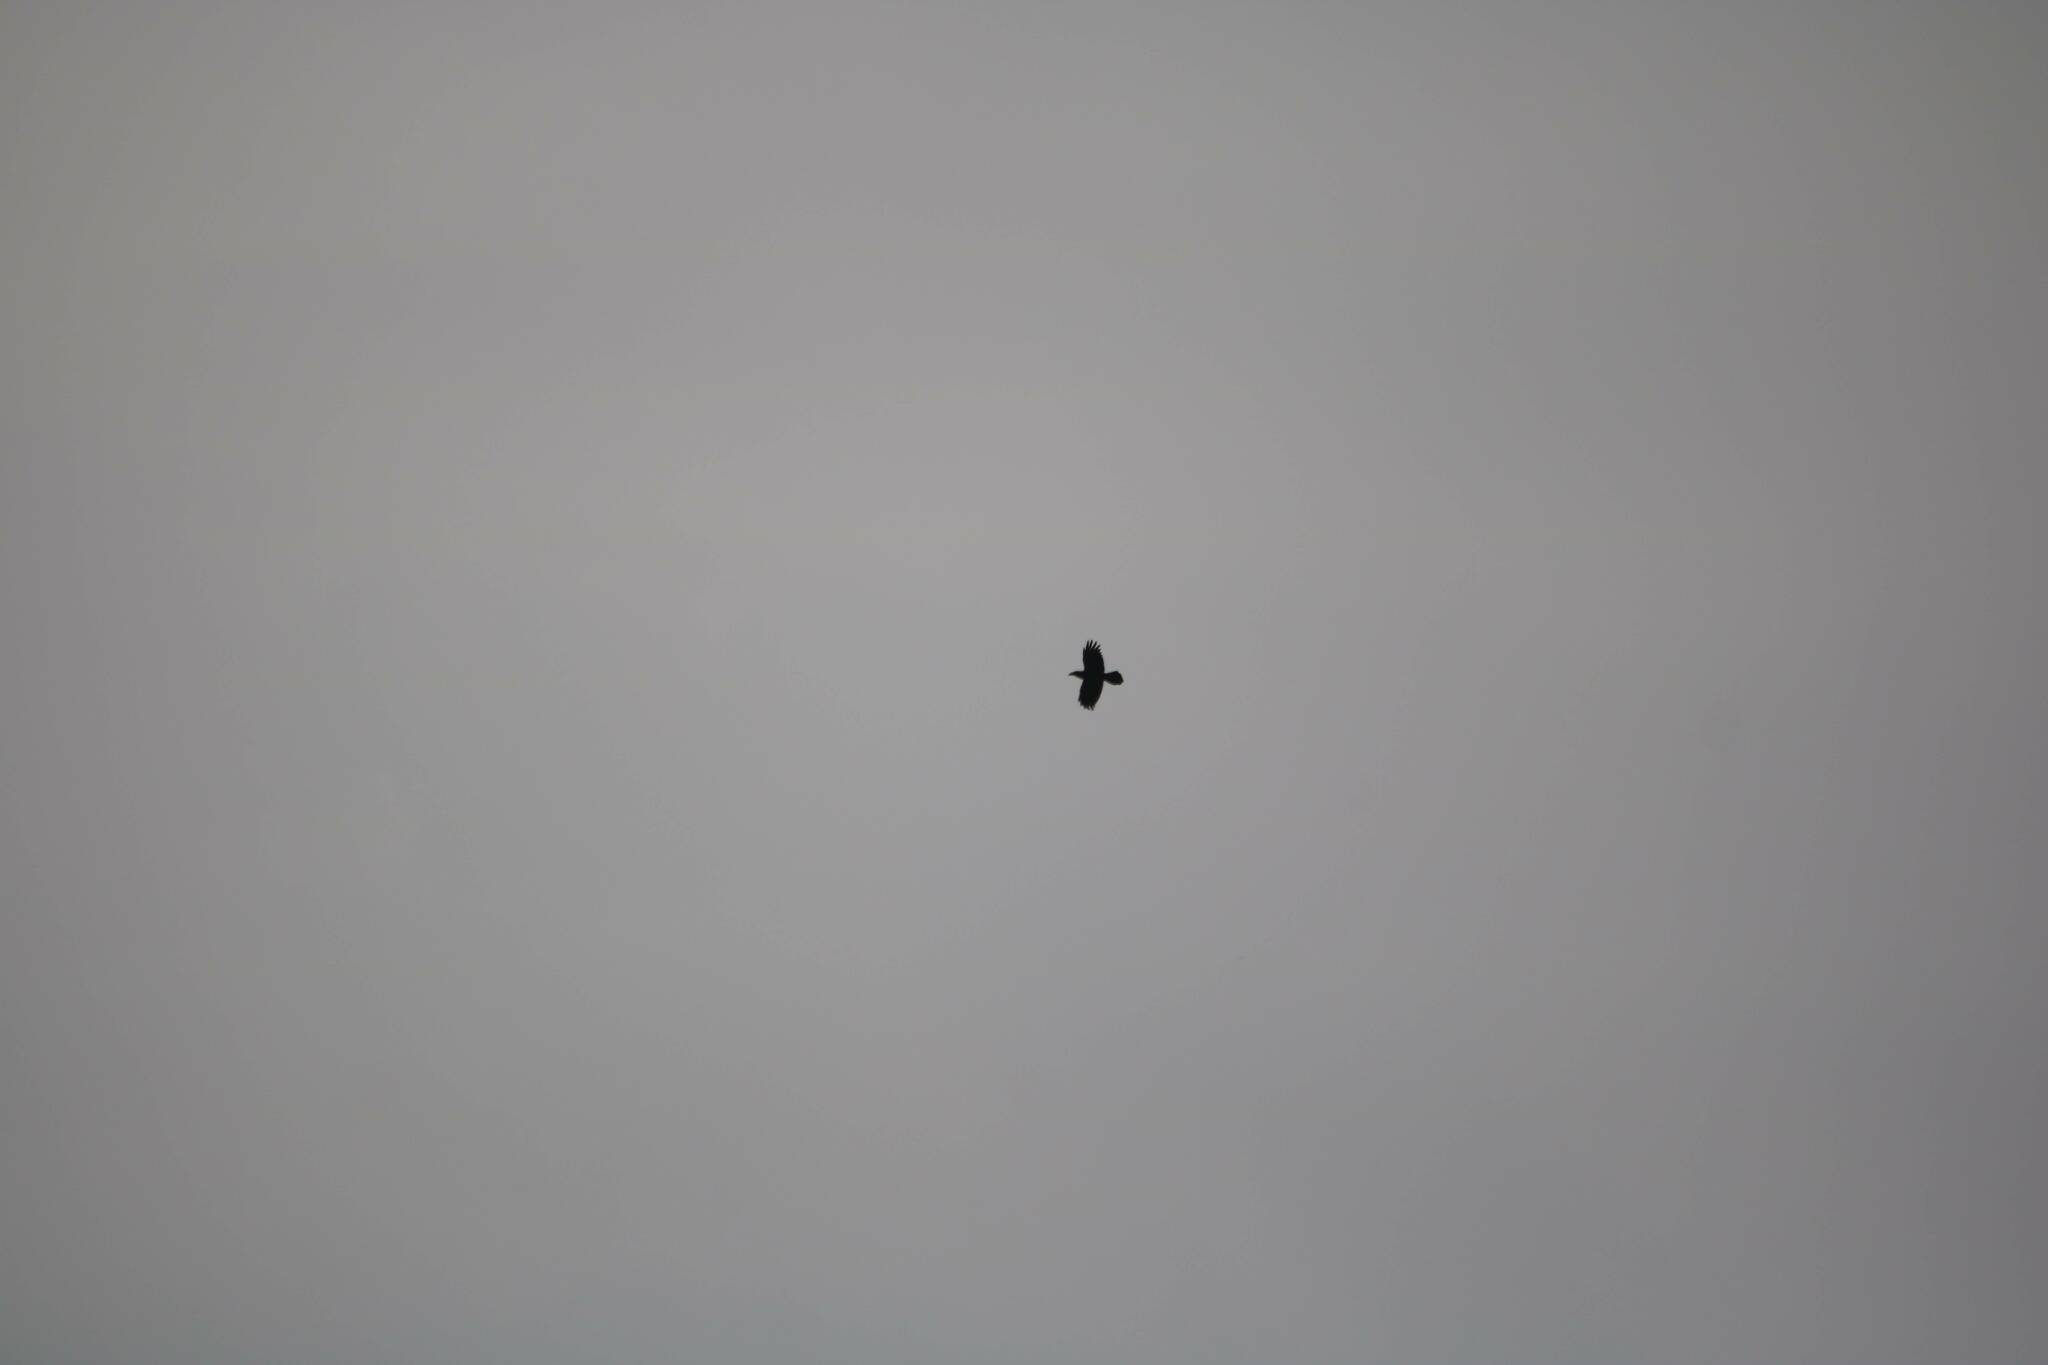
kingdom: Animalia
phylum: Chordata
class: Aves
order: Passeriformes
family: Corvidae
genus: Corvus
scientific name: Corvus corax
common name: Common raven
